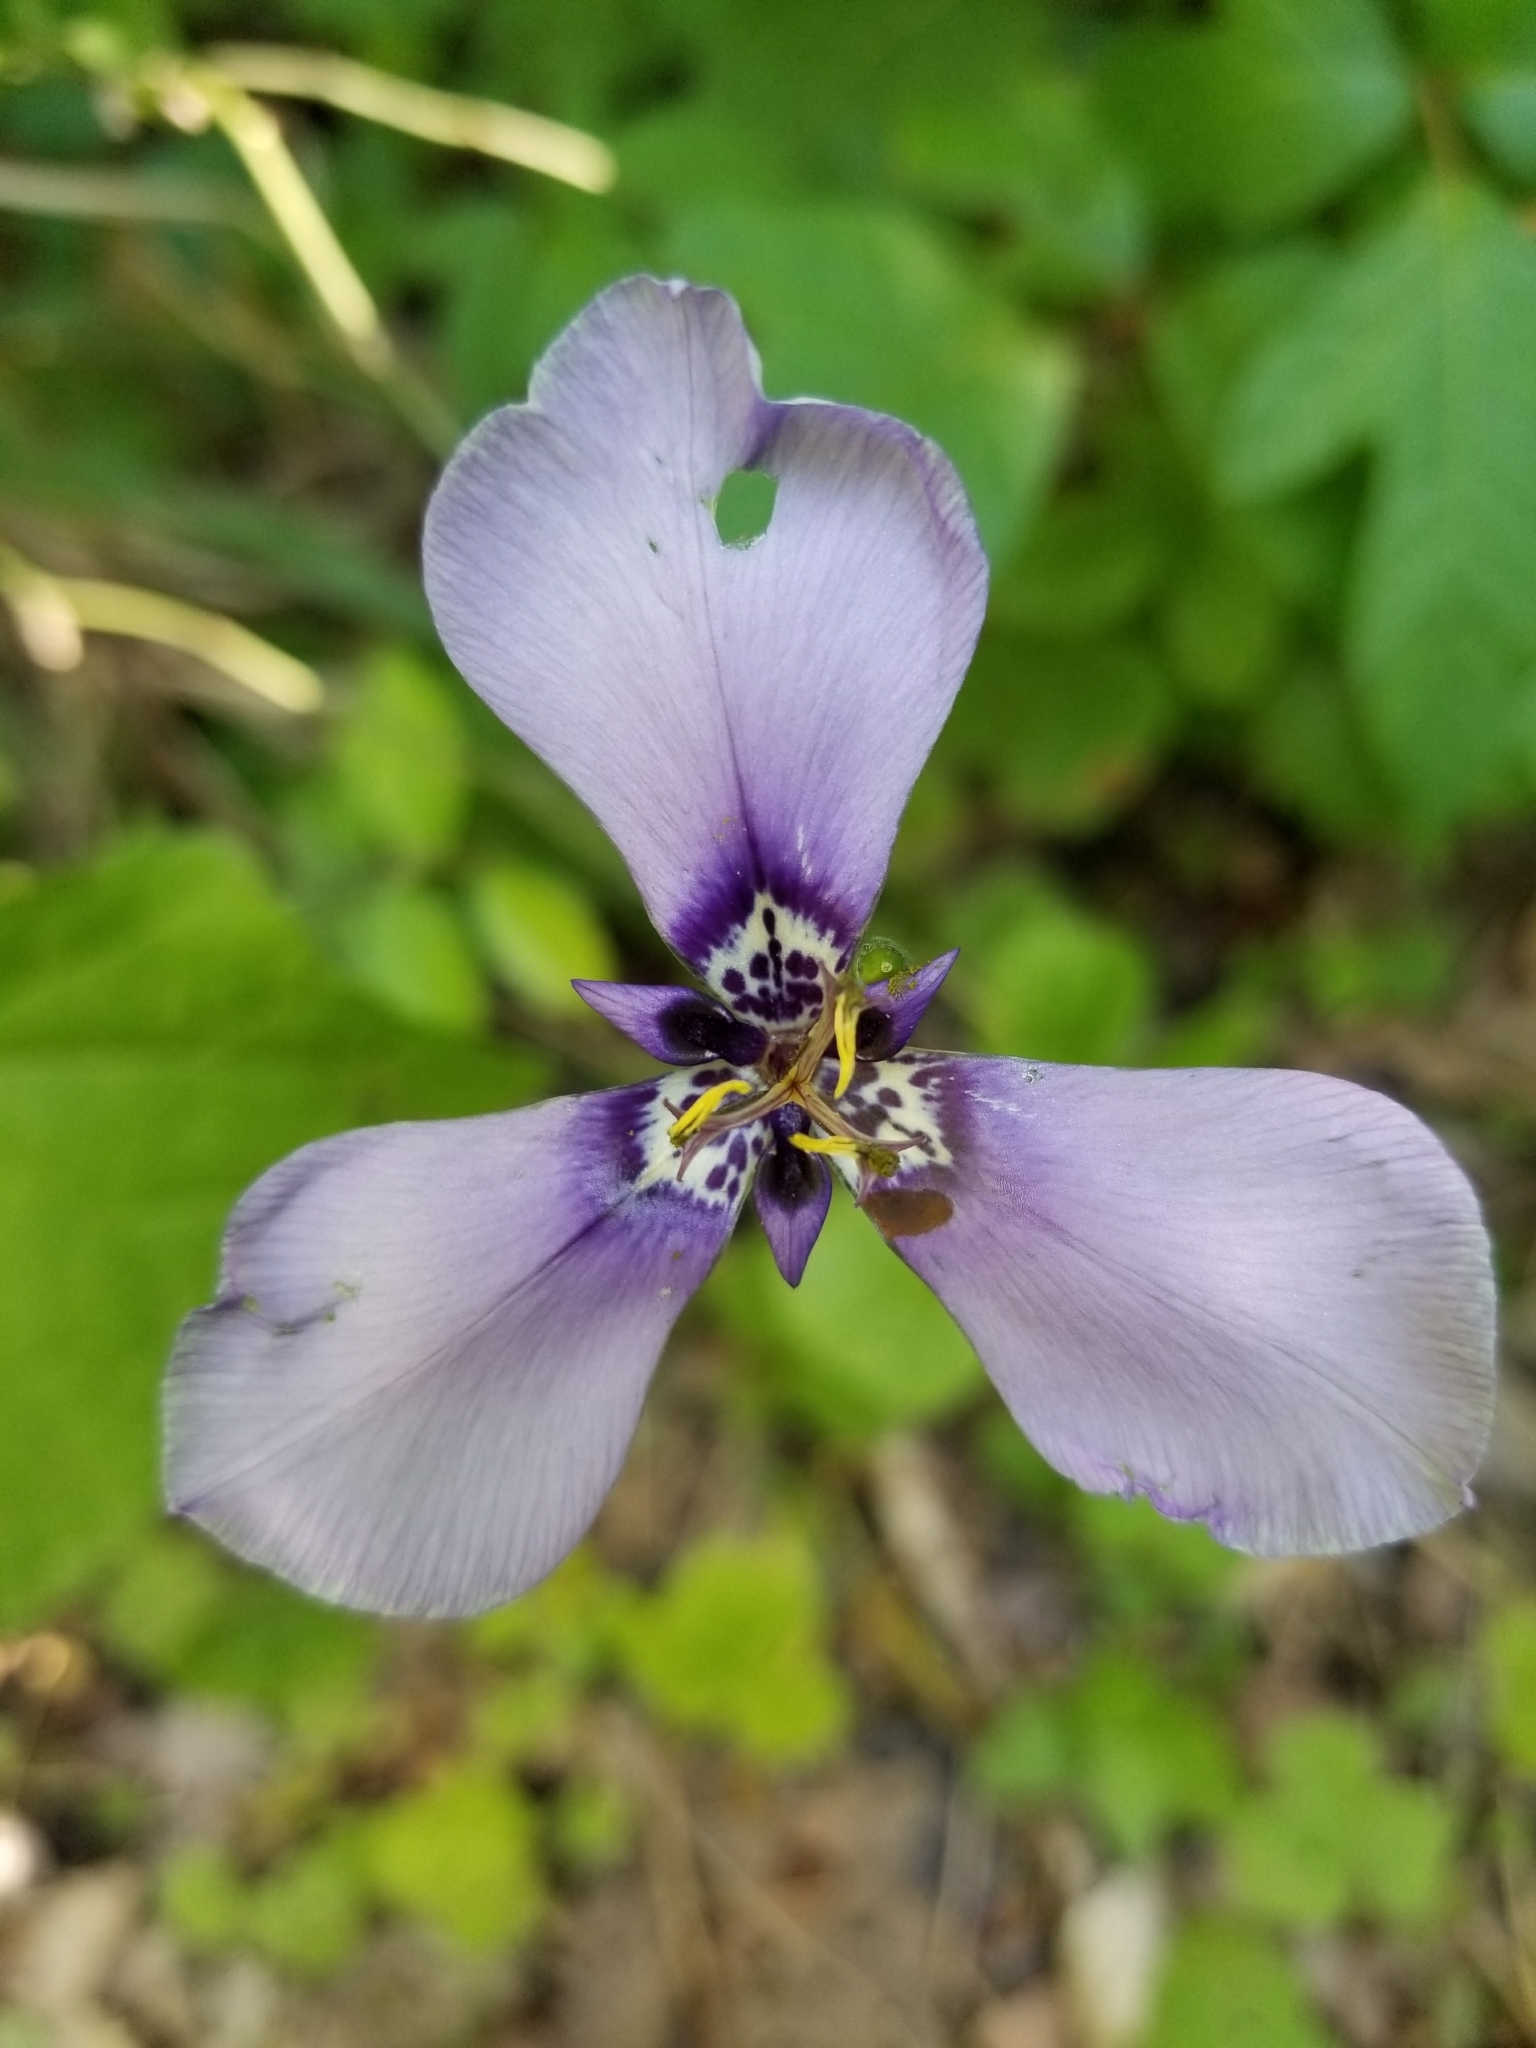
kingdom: Plantae
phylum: Tracheophyta
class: Liliopsida
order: Asparagales
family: Iridaceae
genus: Herbertia
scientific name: Herbertia lahue
